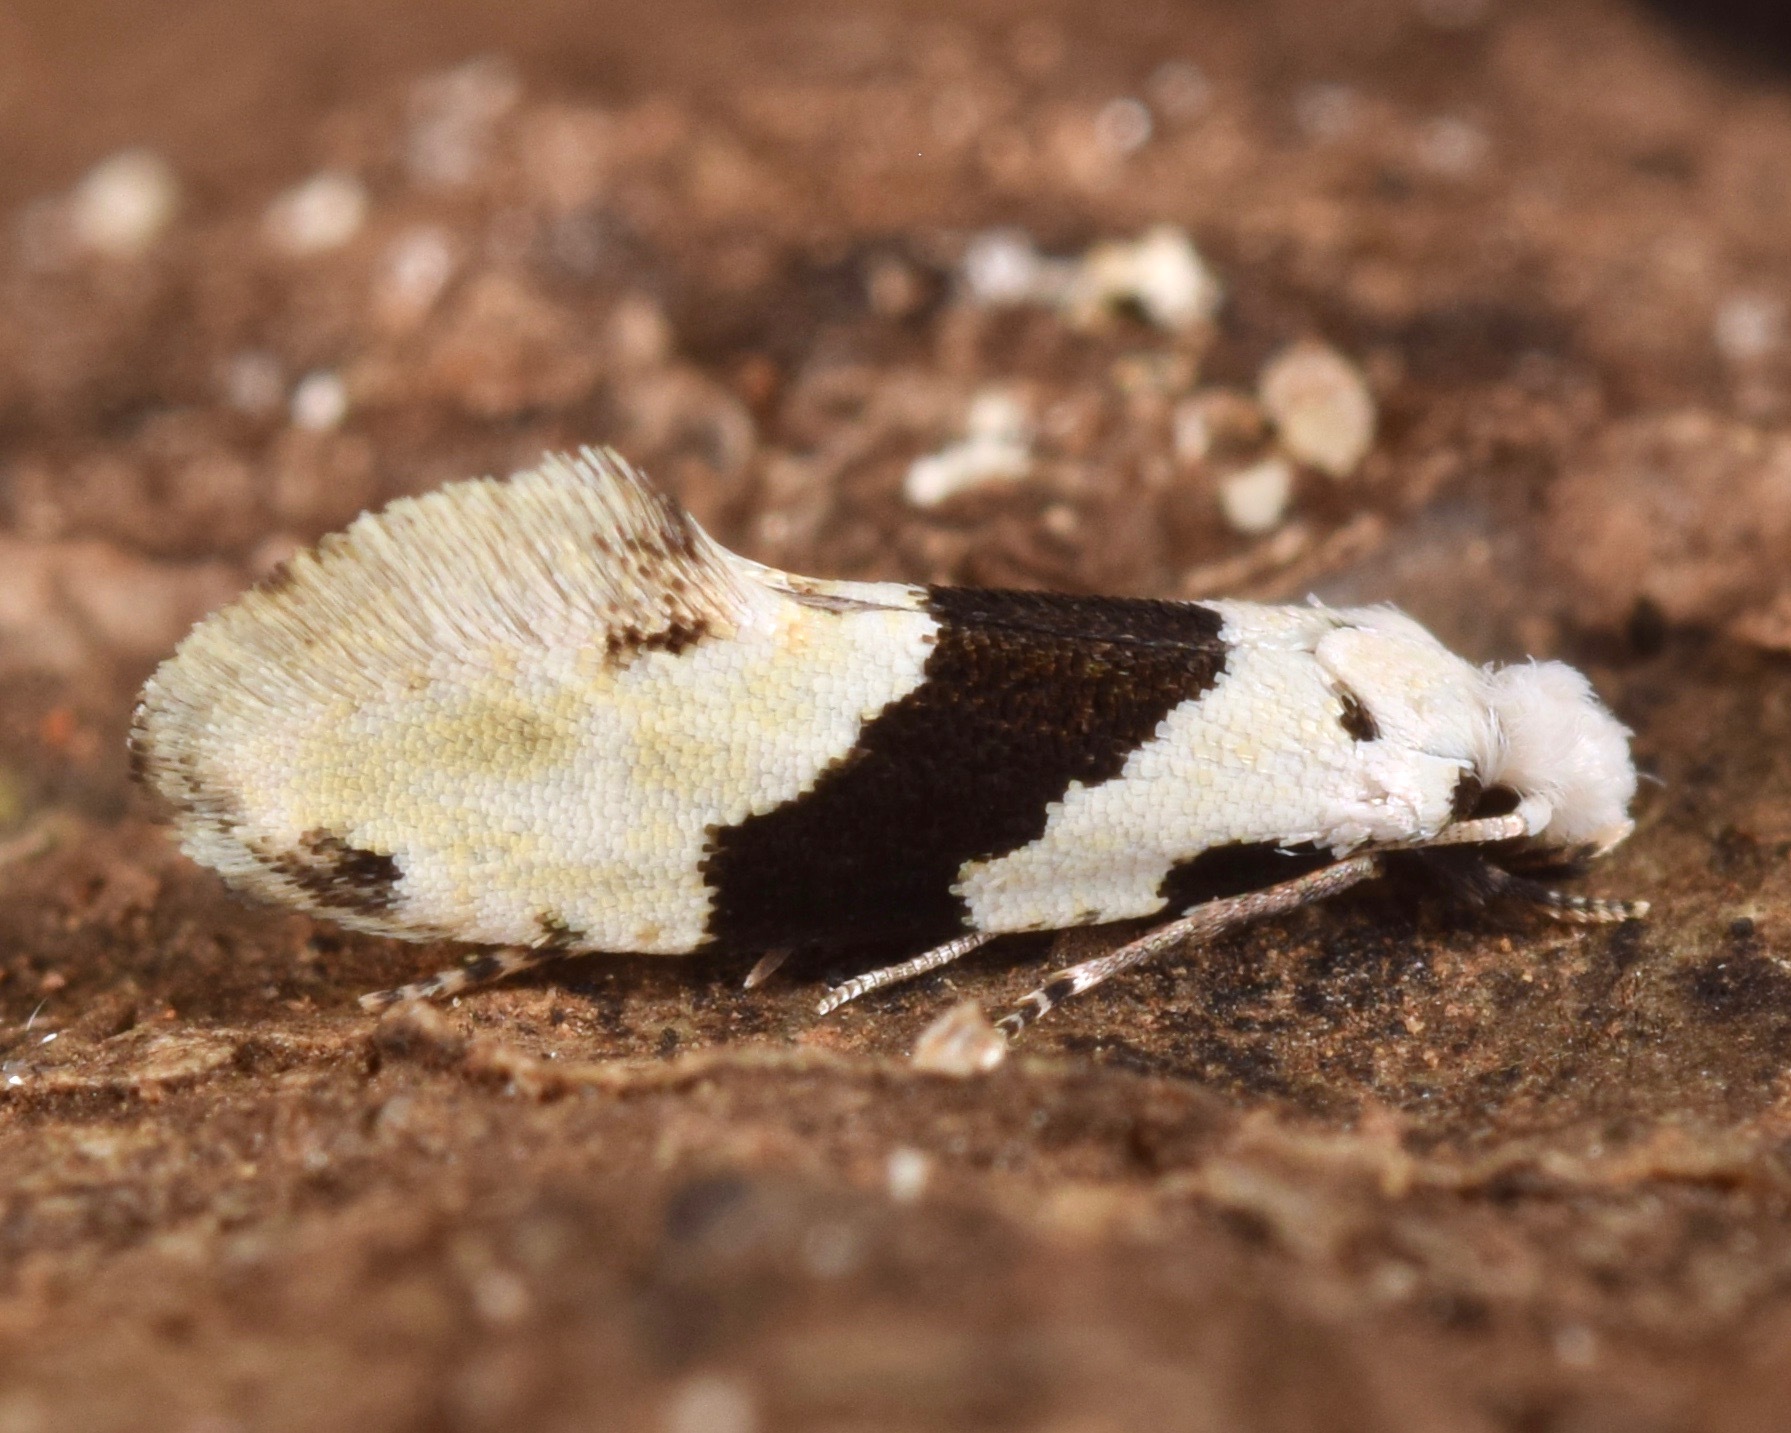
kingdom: Animalia
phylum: Arthropoda
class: Insecta
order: Lepidoptera
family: Tineidae
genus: Nemapogon
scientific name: Nemapogon clematella
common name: Barred white clothes
